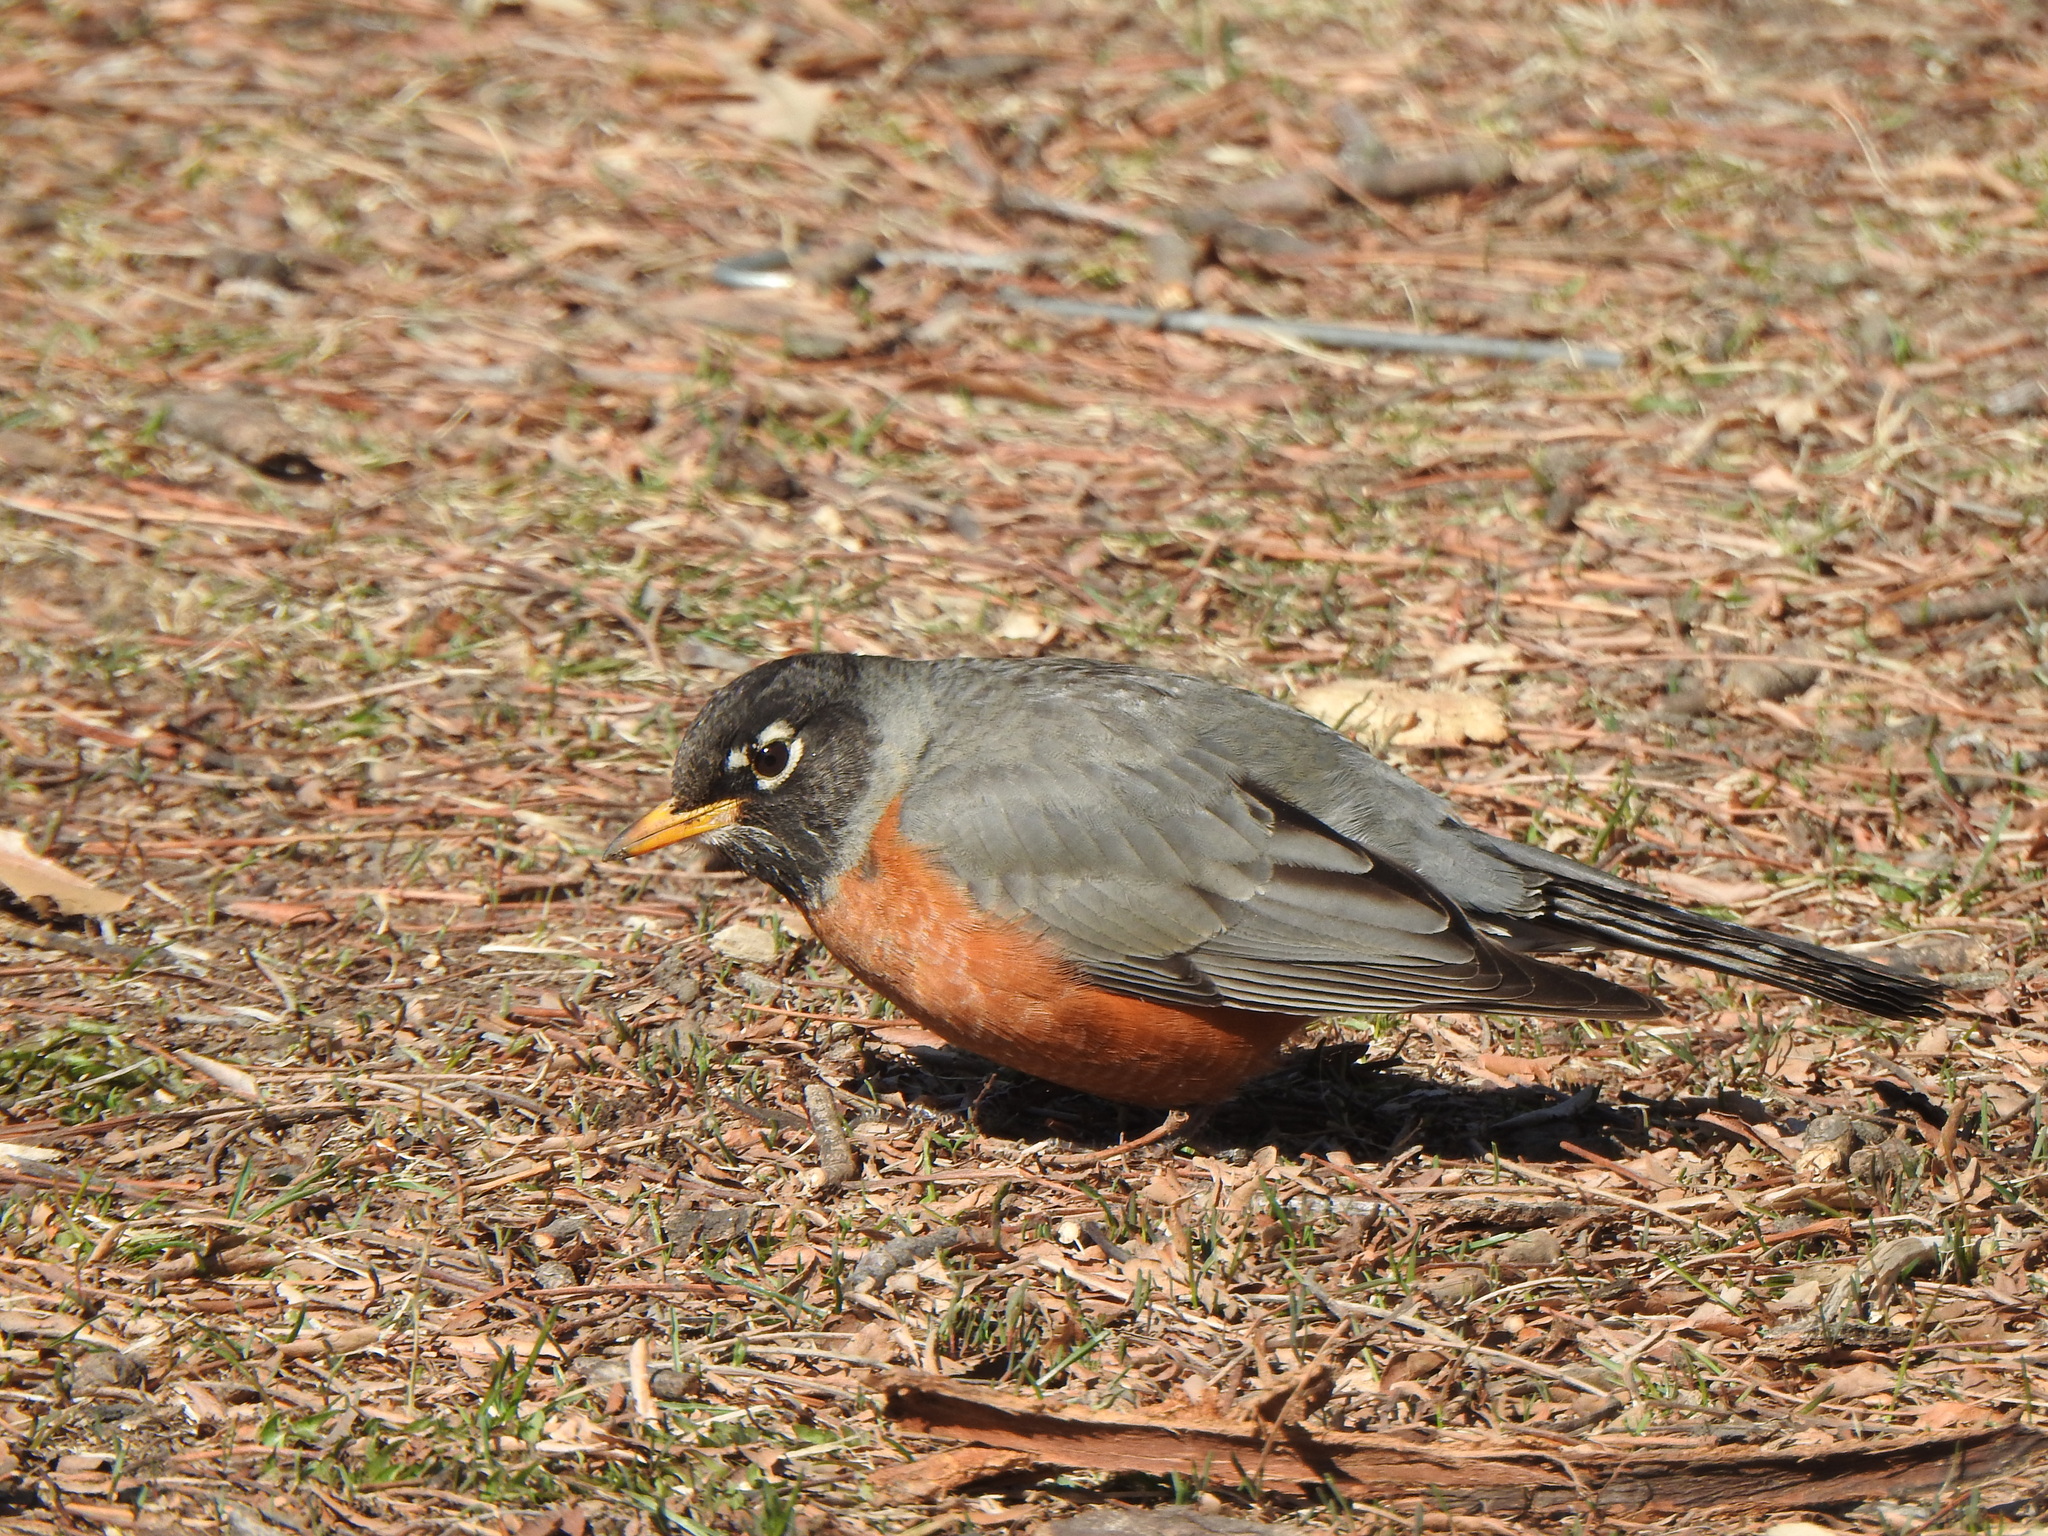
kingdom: Animalia
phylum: Chordata
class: Aves
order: Passeriformes
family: Turdidae
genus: Turdus
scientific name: Turdus migratorius
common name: American robin
